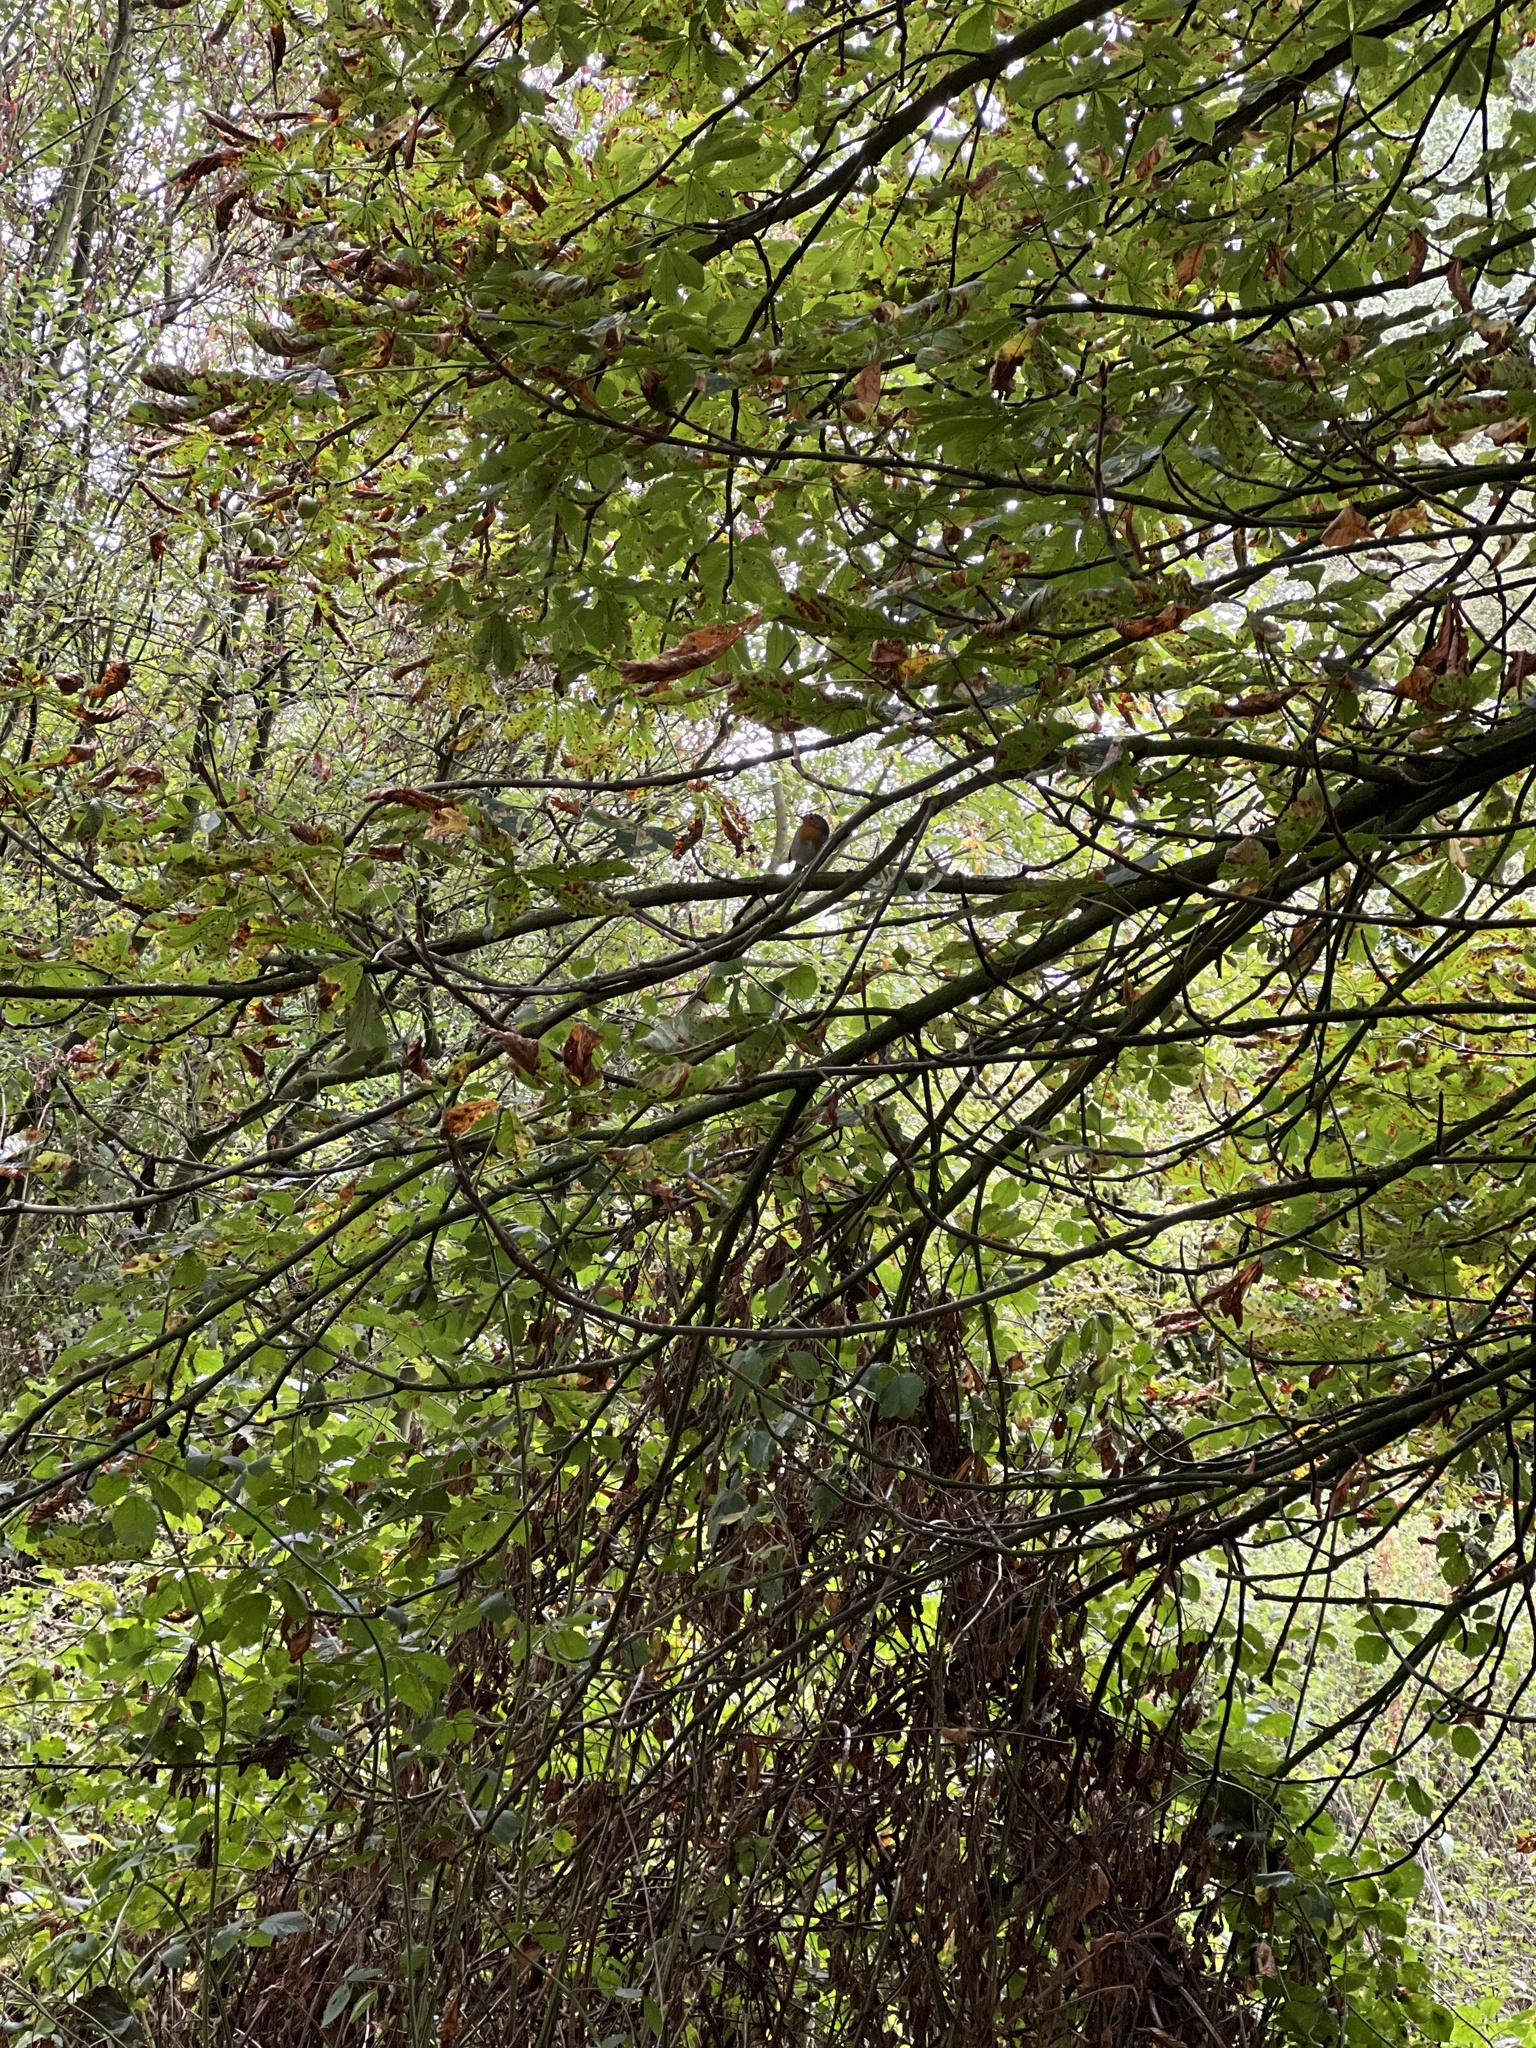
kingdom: Animalia
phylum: Chordata
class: Aves
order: Passeriformes
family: Muscicapidae
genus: Erithacus
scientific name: Erithacus rubecula
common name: European robin
